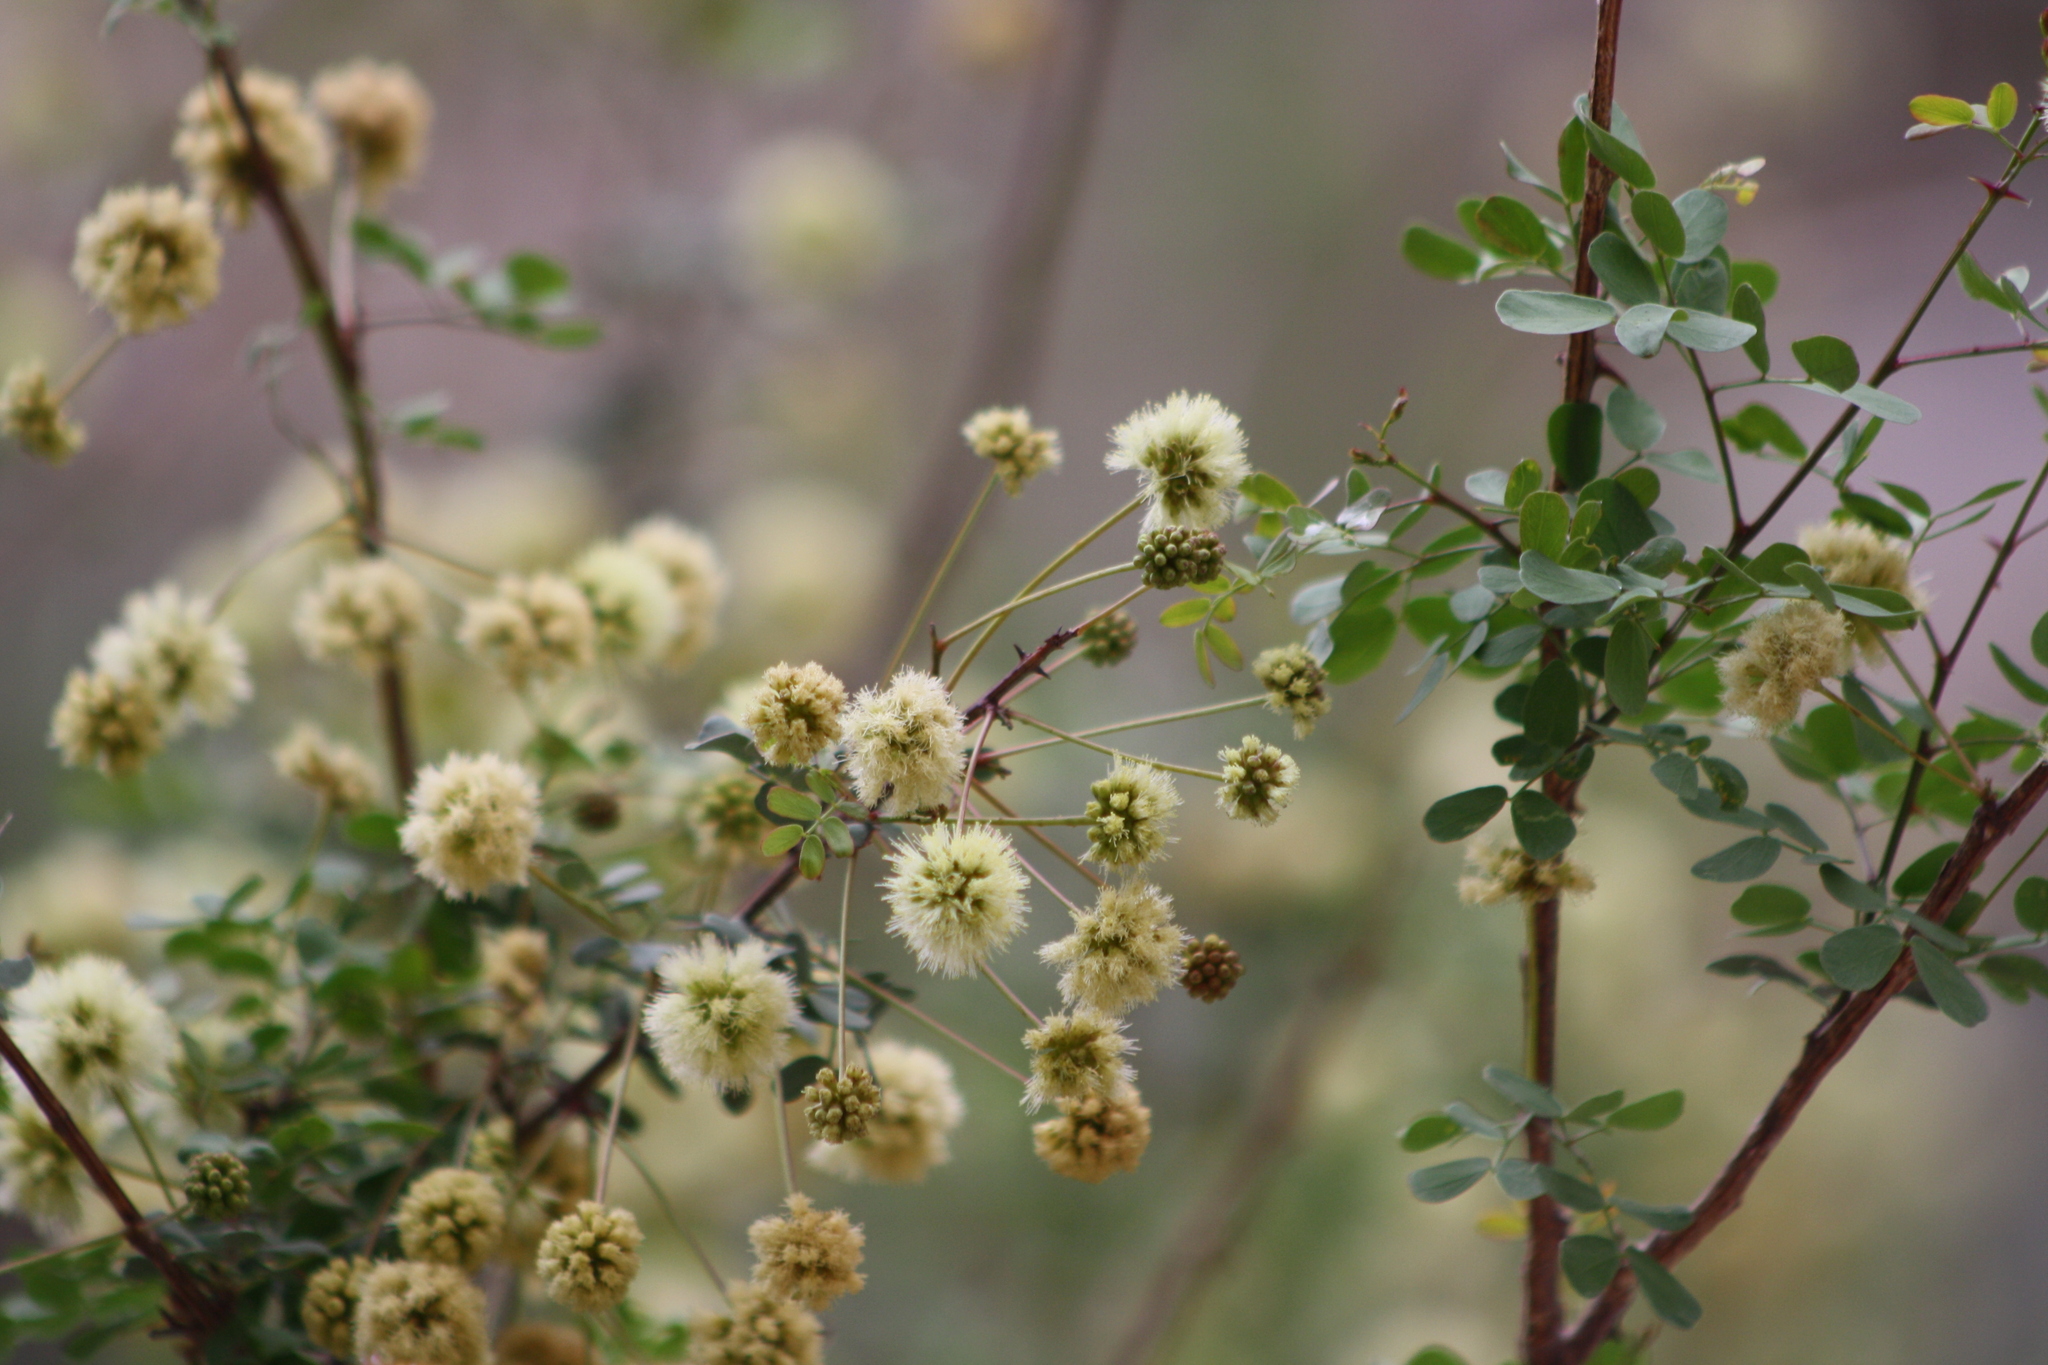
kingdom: Plantae
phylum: Tracheophyta
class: Magnoliopsida
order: Fabales
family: Fabaceae
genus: Senegalia
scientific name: Senegalia roemeriana
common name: Roemer's acacia
